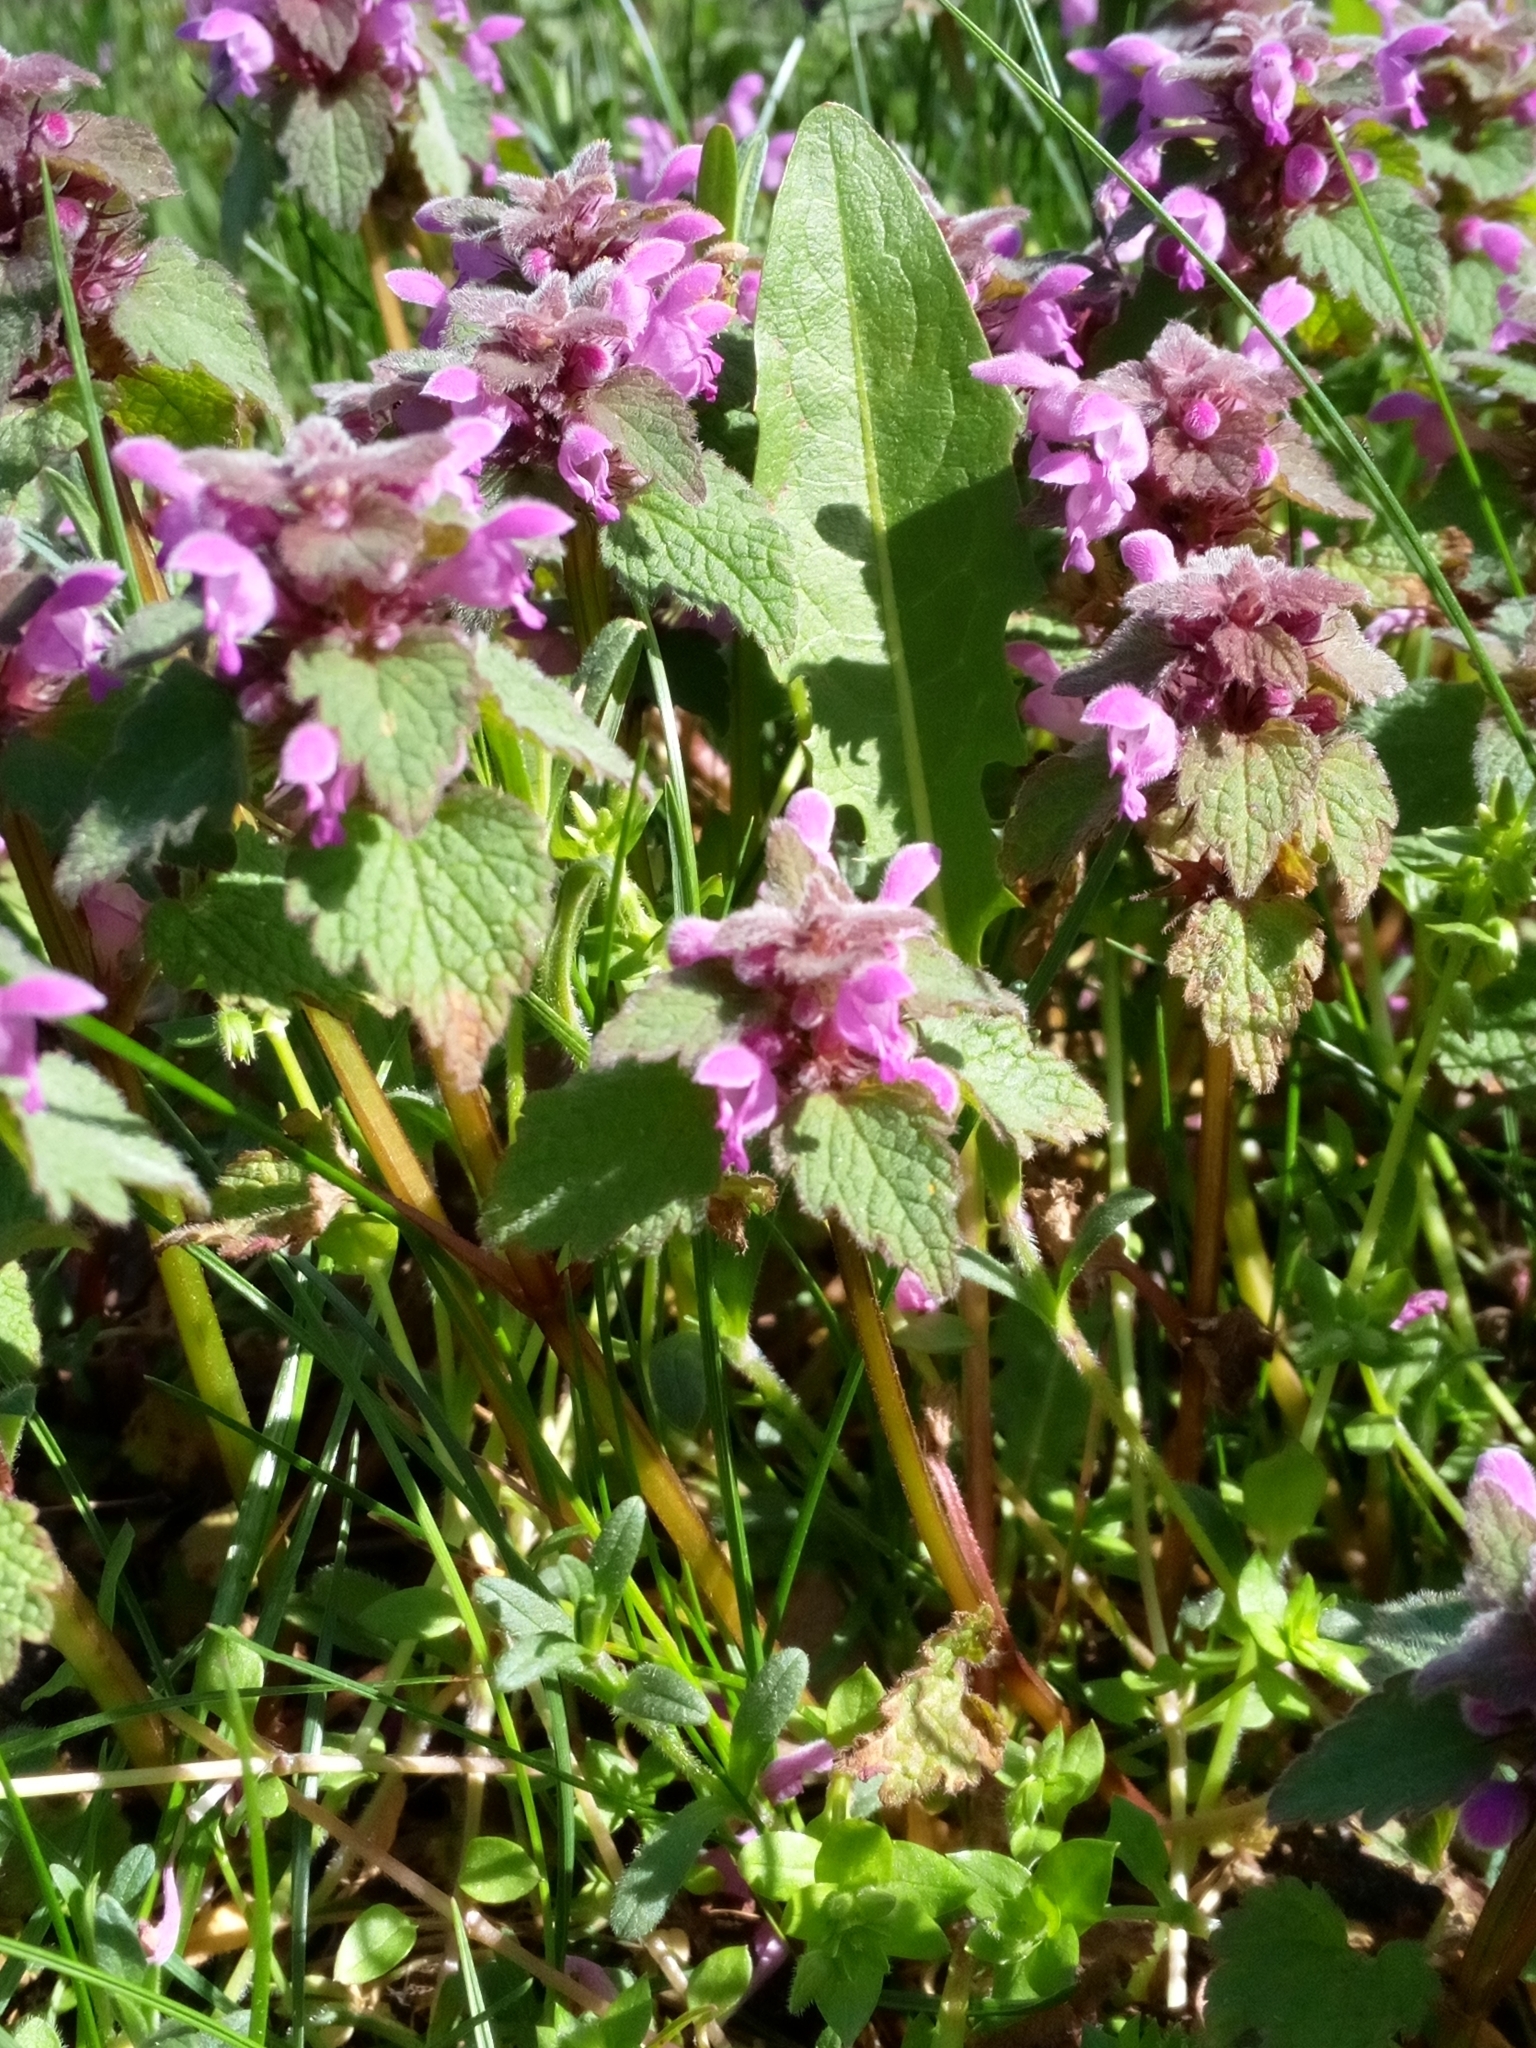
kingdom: Plantae
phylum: Tracheophyta
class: Magnoliopsida
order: Lamiales
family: Lamiaceae
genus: Lamium
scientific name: Lamium purpureum
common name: Red dead-nettle
